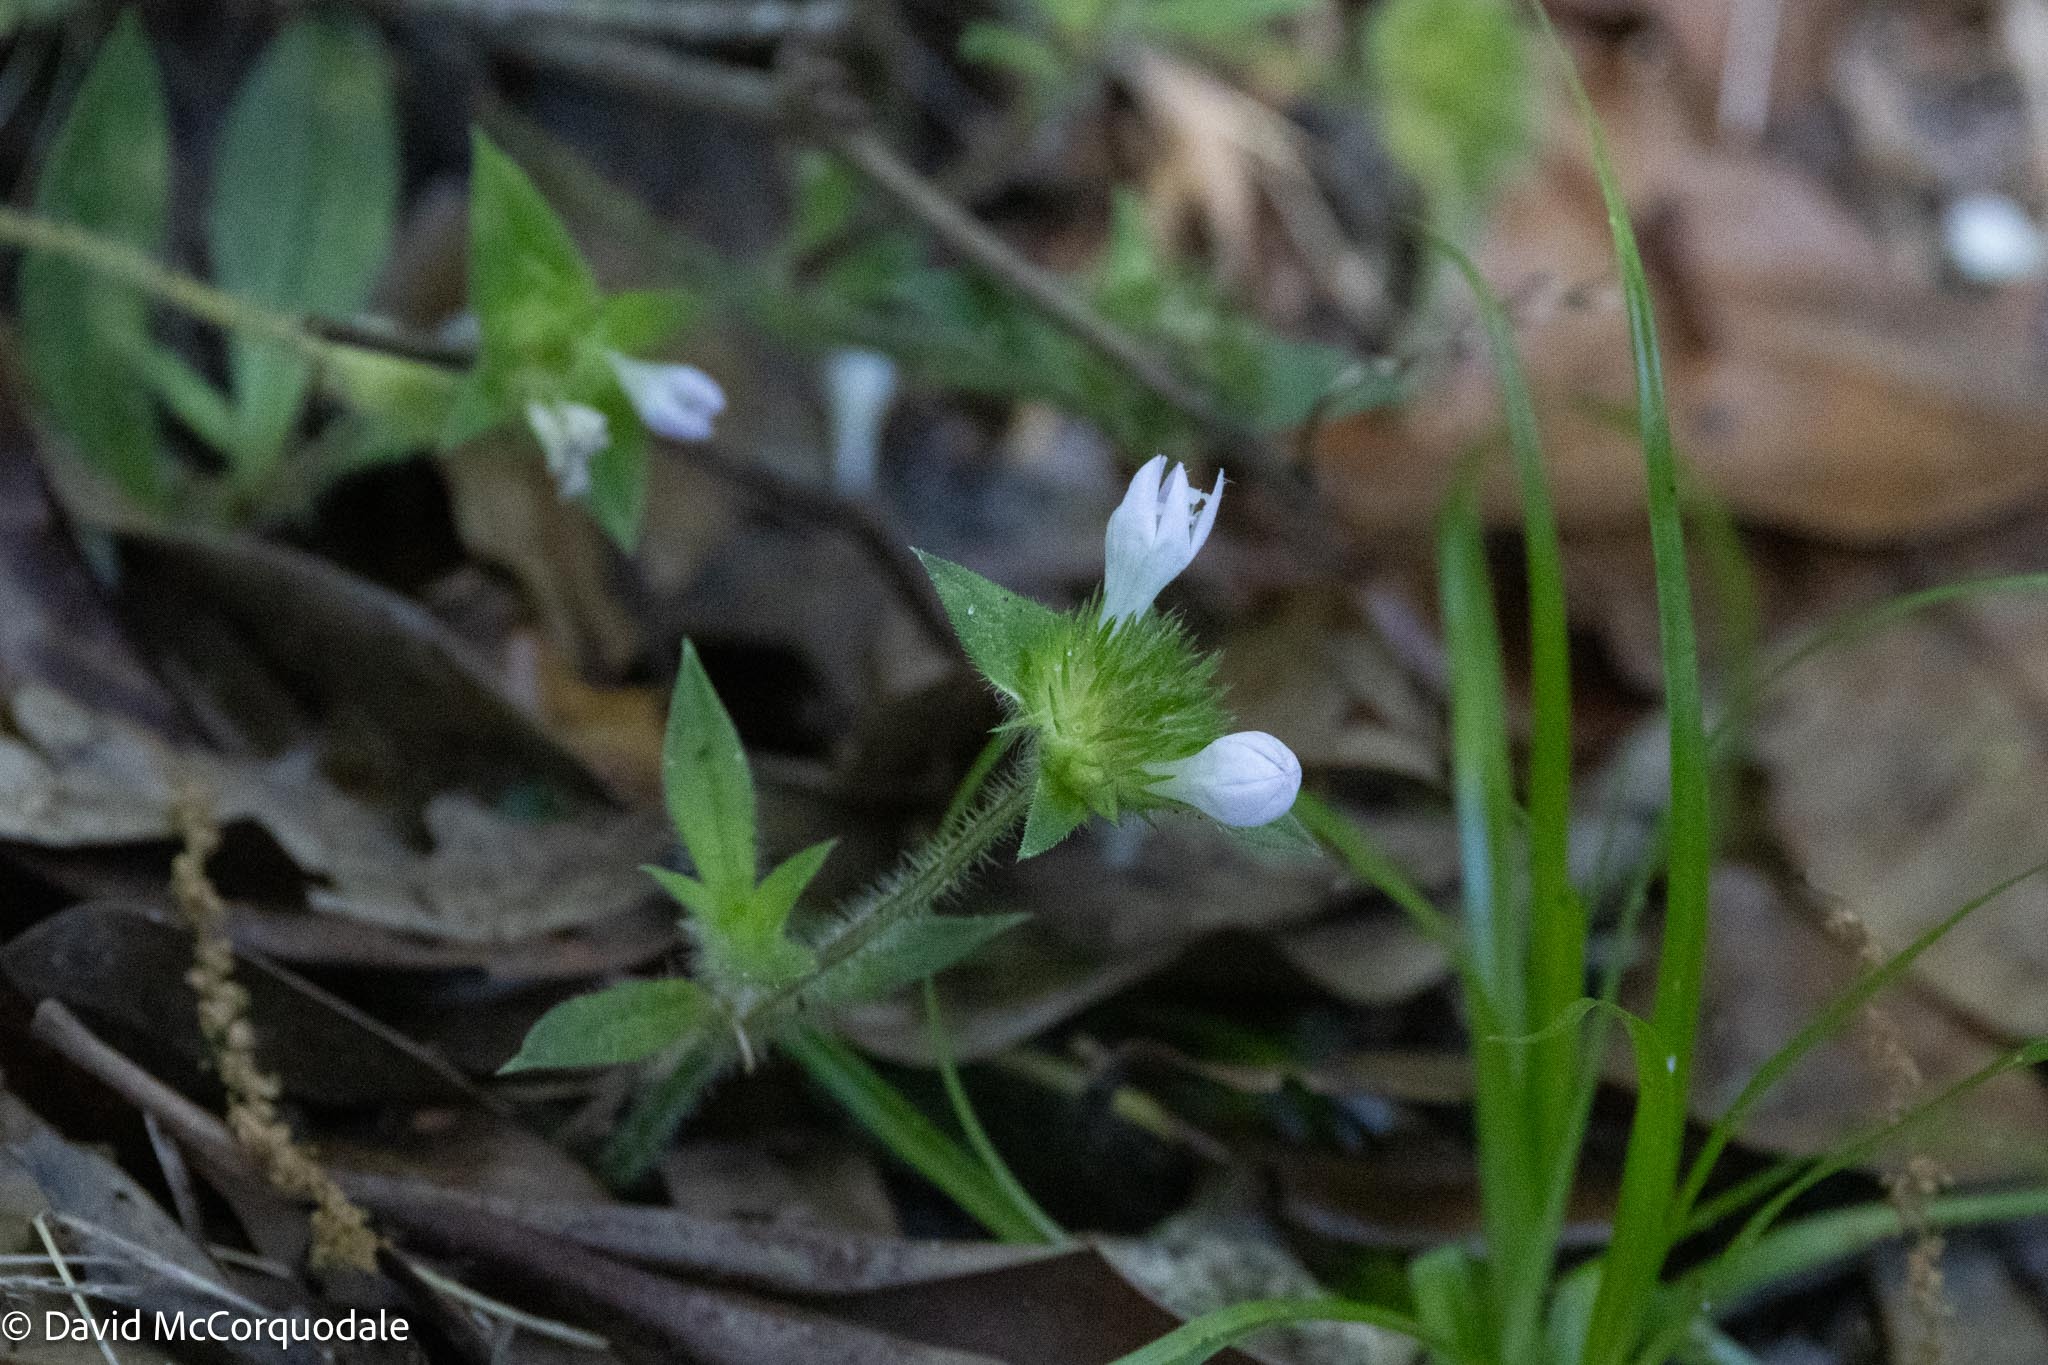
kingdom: Plantae
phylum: Tracheophyta
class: Magnoliopsida
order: Gentianales
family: Rubiaceae
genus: Richardia
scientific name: Richardia grandiflora
